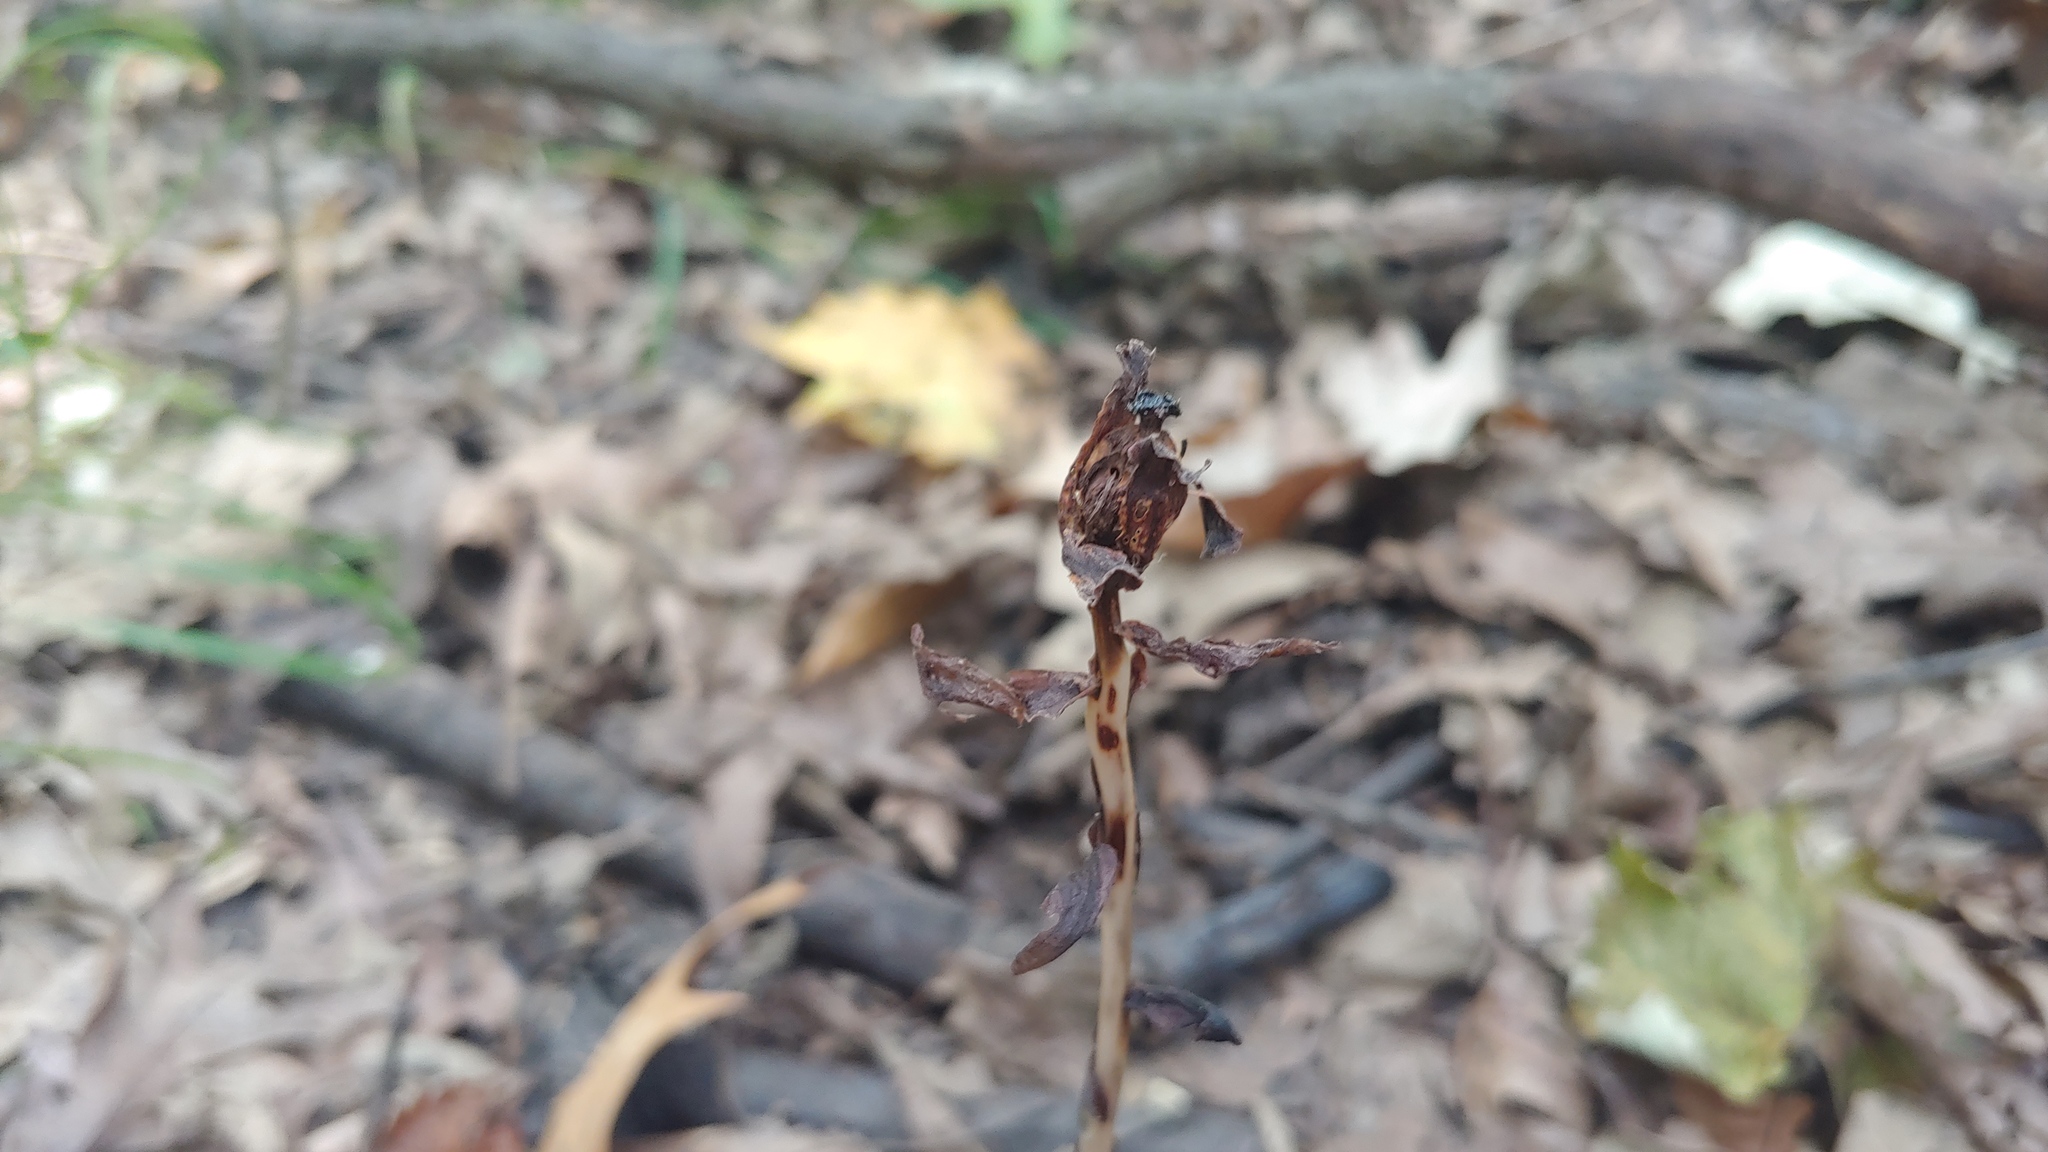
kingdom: Plantae
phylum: Tracheophyta
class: Magnoliopsida
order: Ericales
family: Ericaceae
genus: Monotropa
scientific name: Monotropa uniflora
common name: Convulsion root
